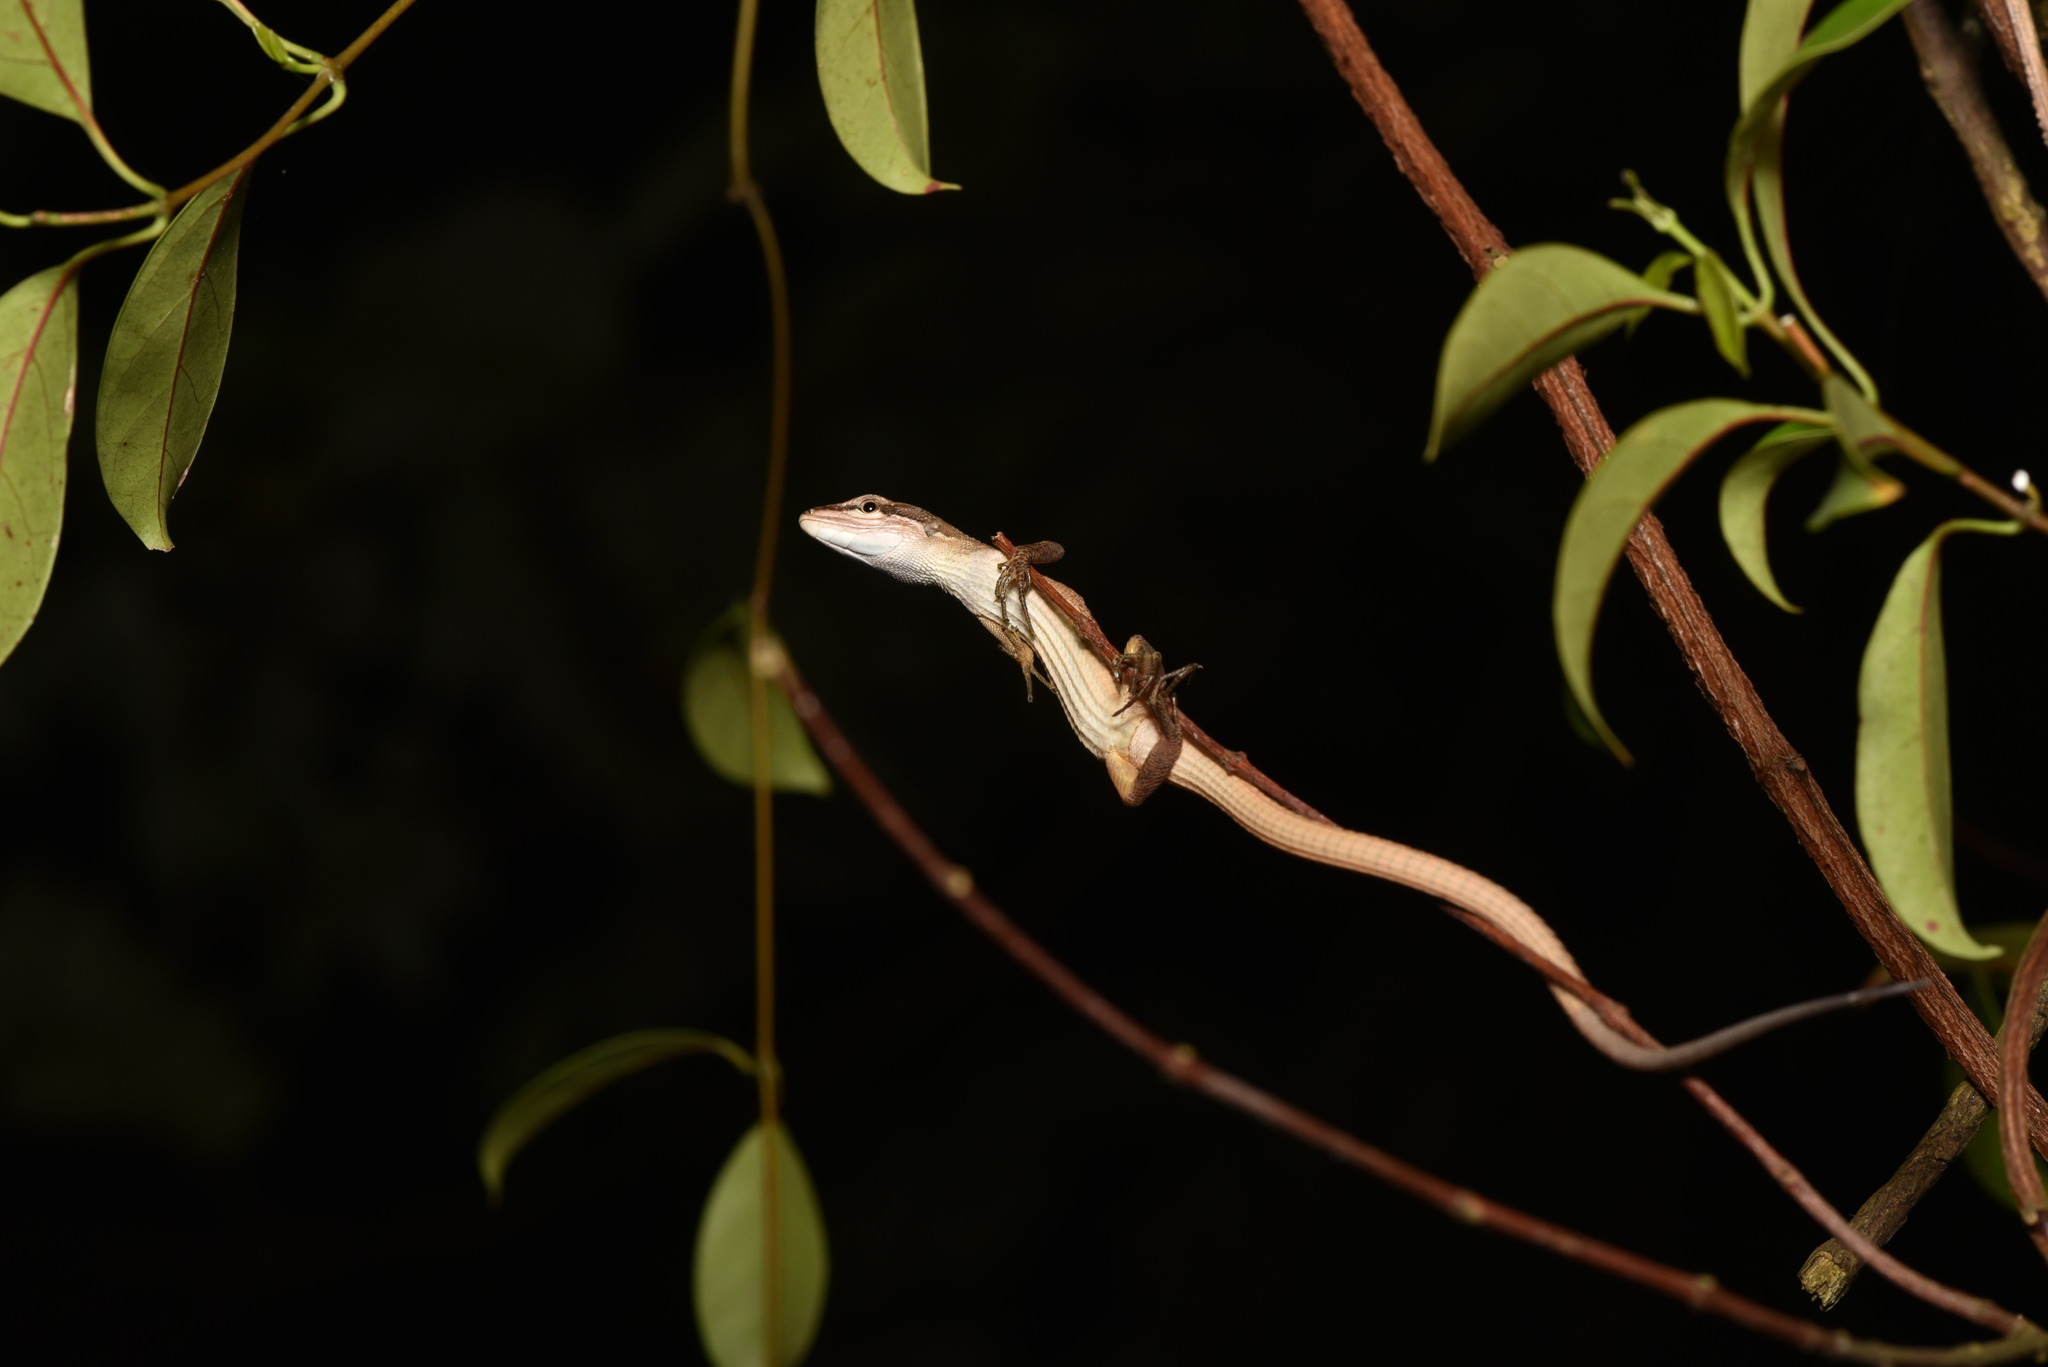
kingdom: Animalia
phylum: Chordata
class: Squamata
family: Lacertidae
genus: Takydromus
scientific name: Takydromus stejnegeri
